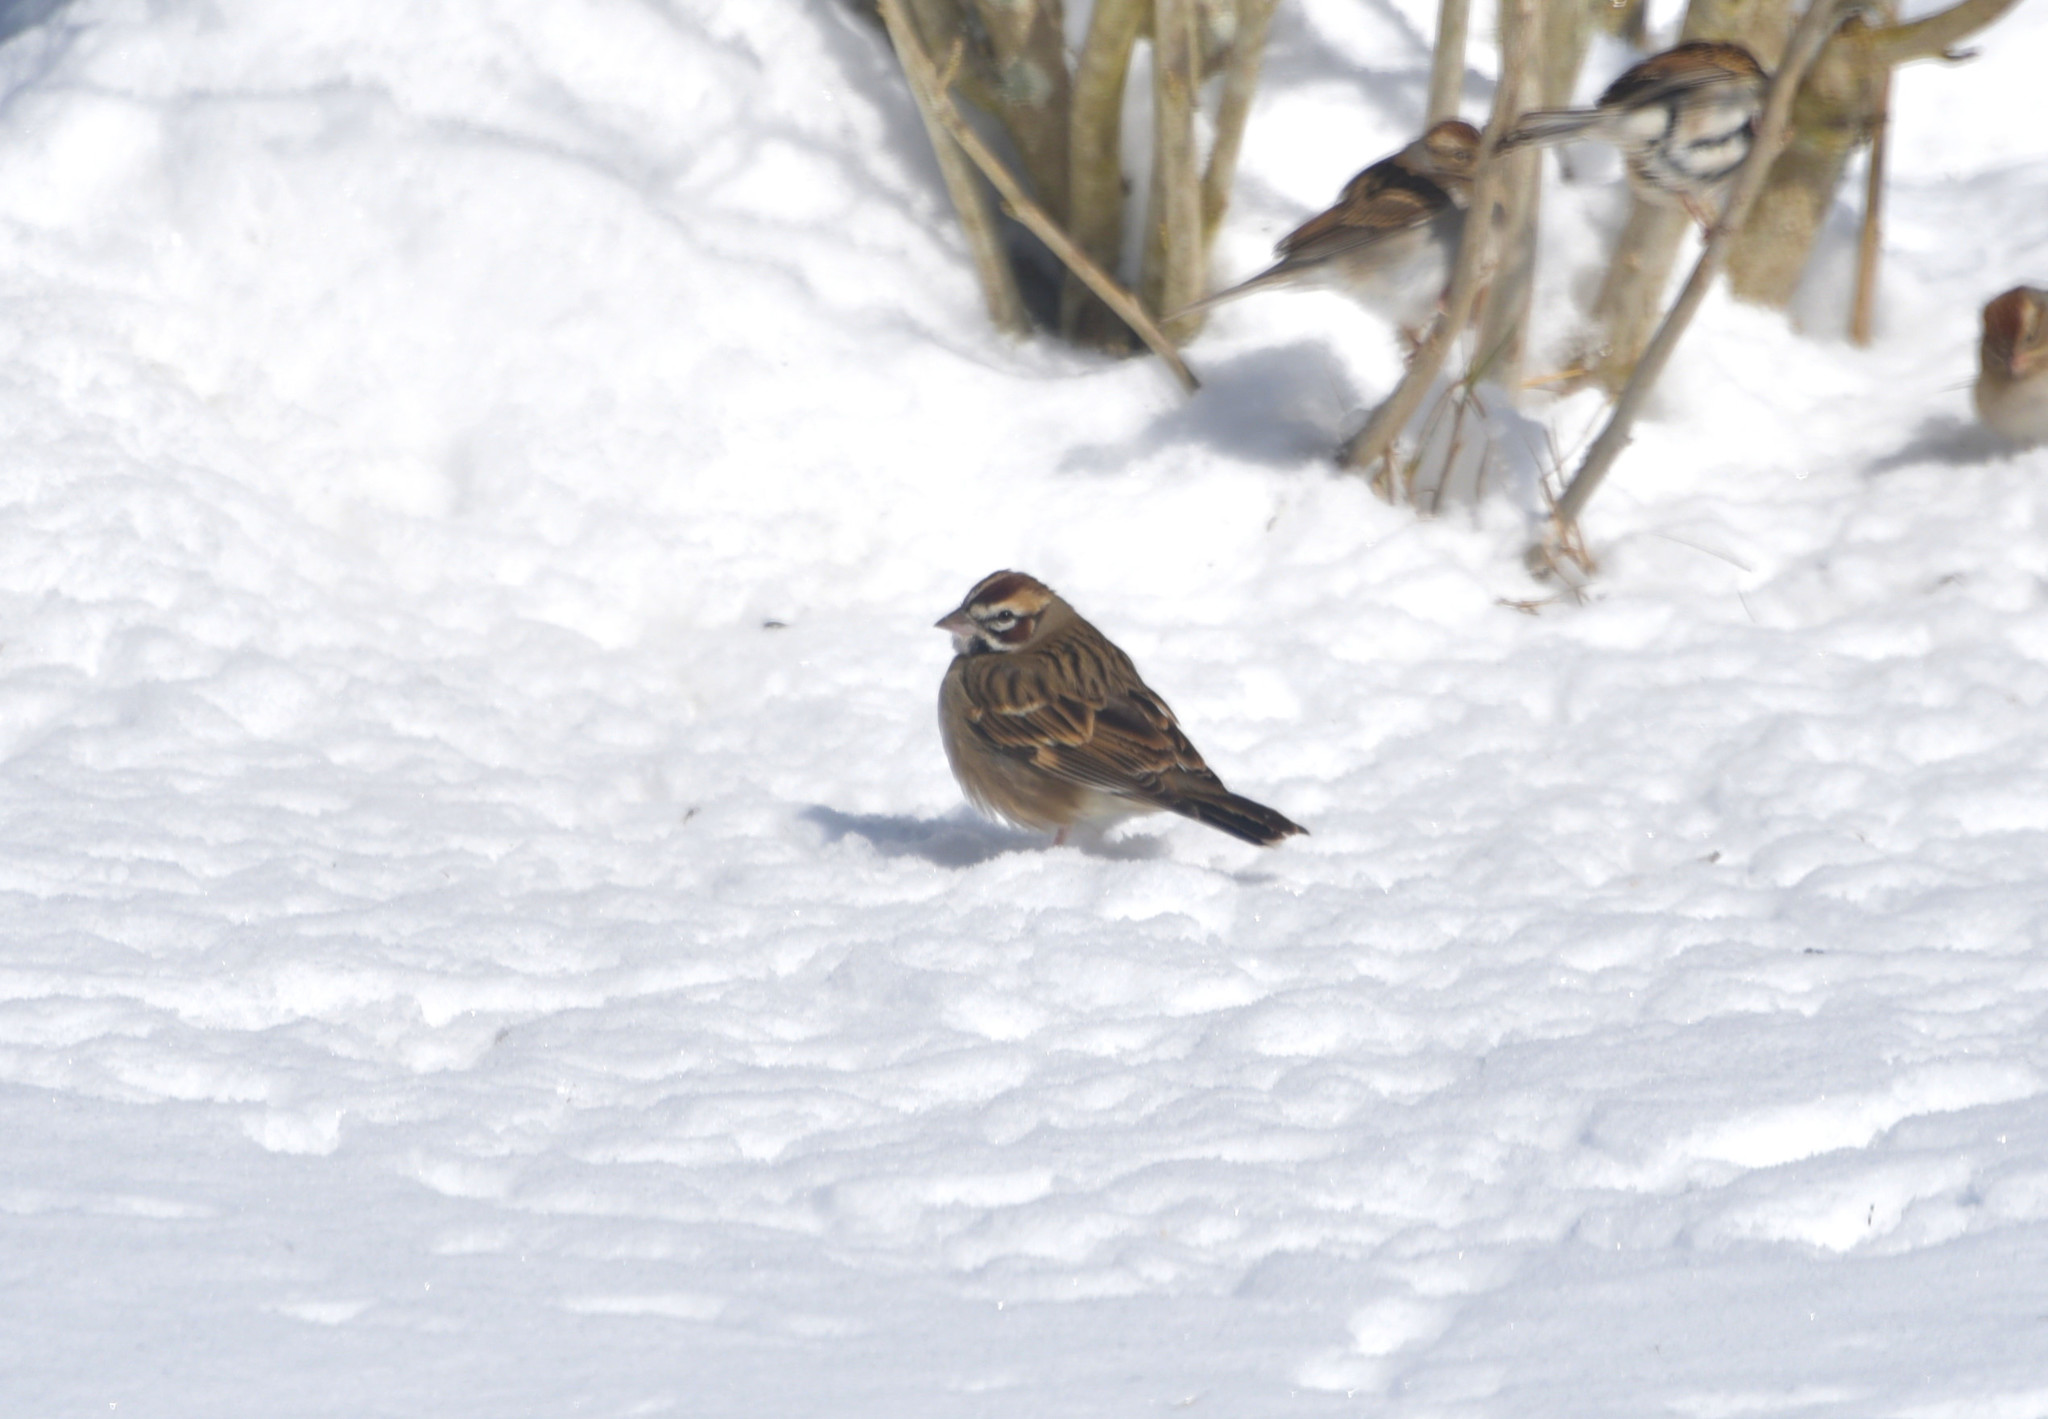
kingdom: Animalia
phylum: Chordata
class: Aves
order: Passeriformes
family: Passerellidae
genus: Chondestes
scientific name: Chondestes grammacus
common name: Lark sparrow
